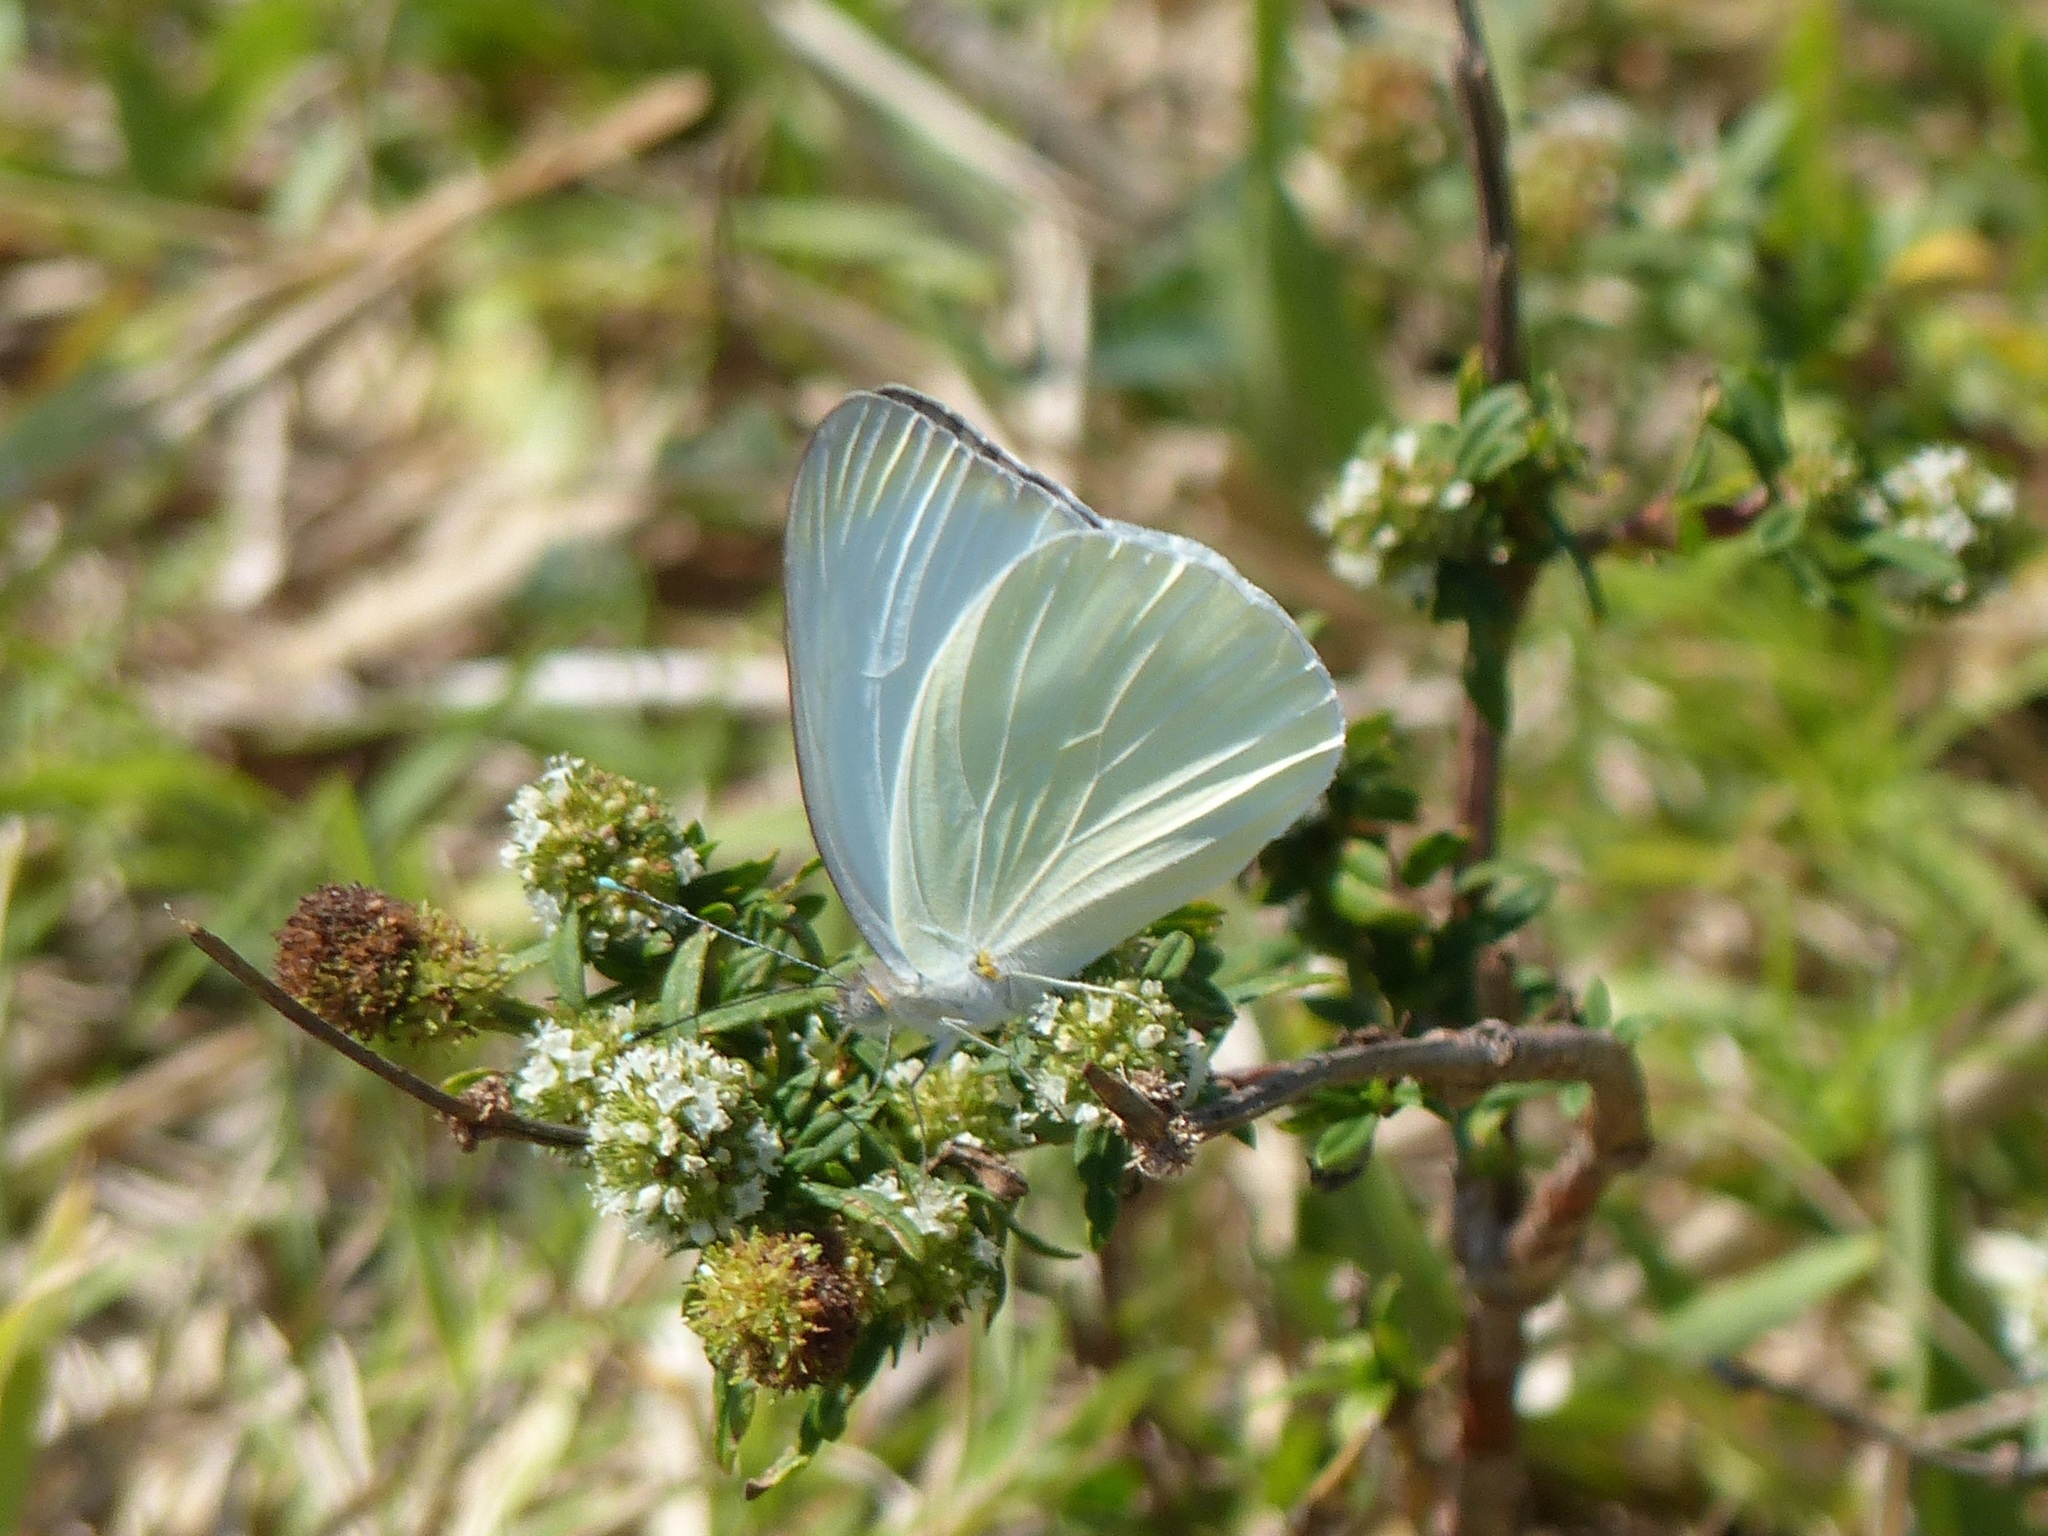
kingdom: Plantae
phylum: Tracheophyta
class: Magnoliopsida
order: Gentianales
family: Rubiaceae
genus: Spermacoce
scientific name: Spermacoce verticillata
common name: Shrubby false buttonweed
